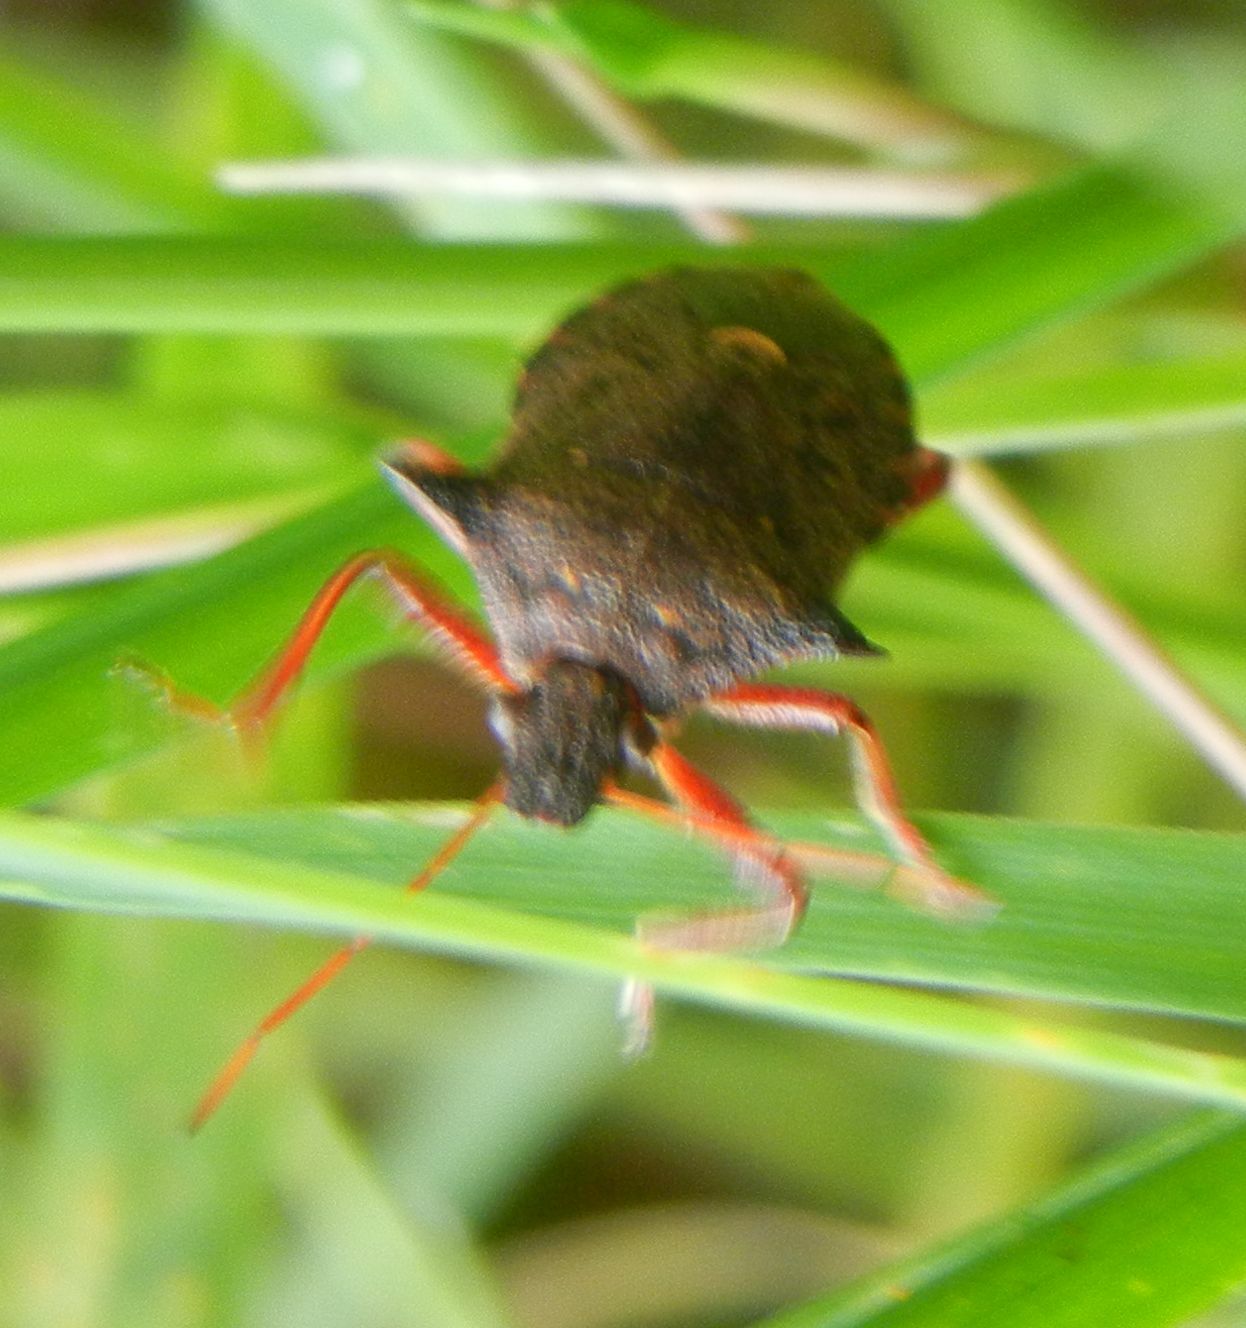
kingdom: Animalia
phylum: Arthropoda
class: Insecta
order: Hemiptera
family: Pentatomidae
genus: Picromerus
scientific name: Picromerus bidens
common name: Spiked shieldbug
